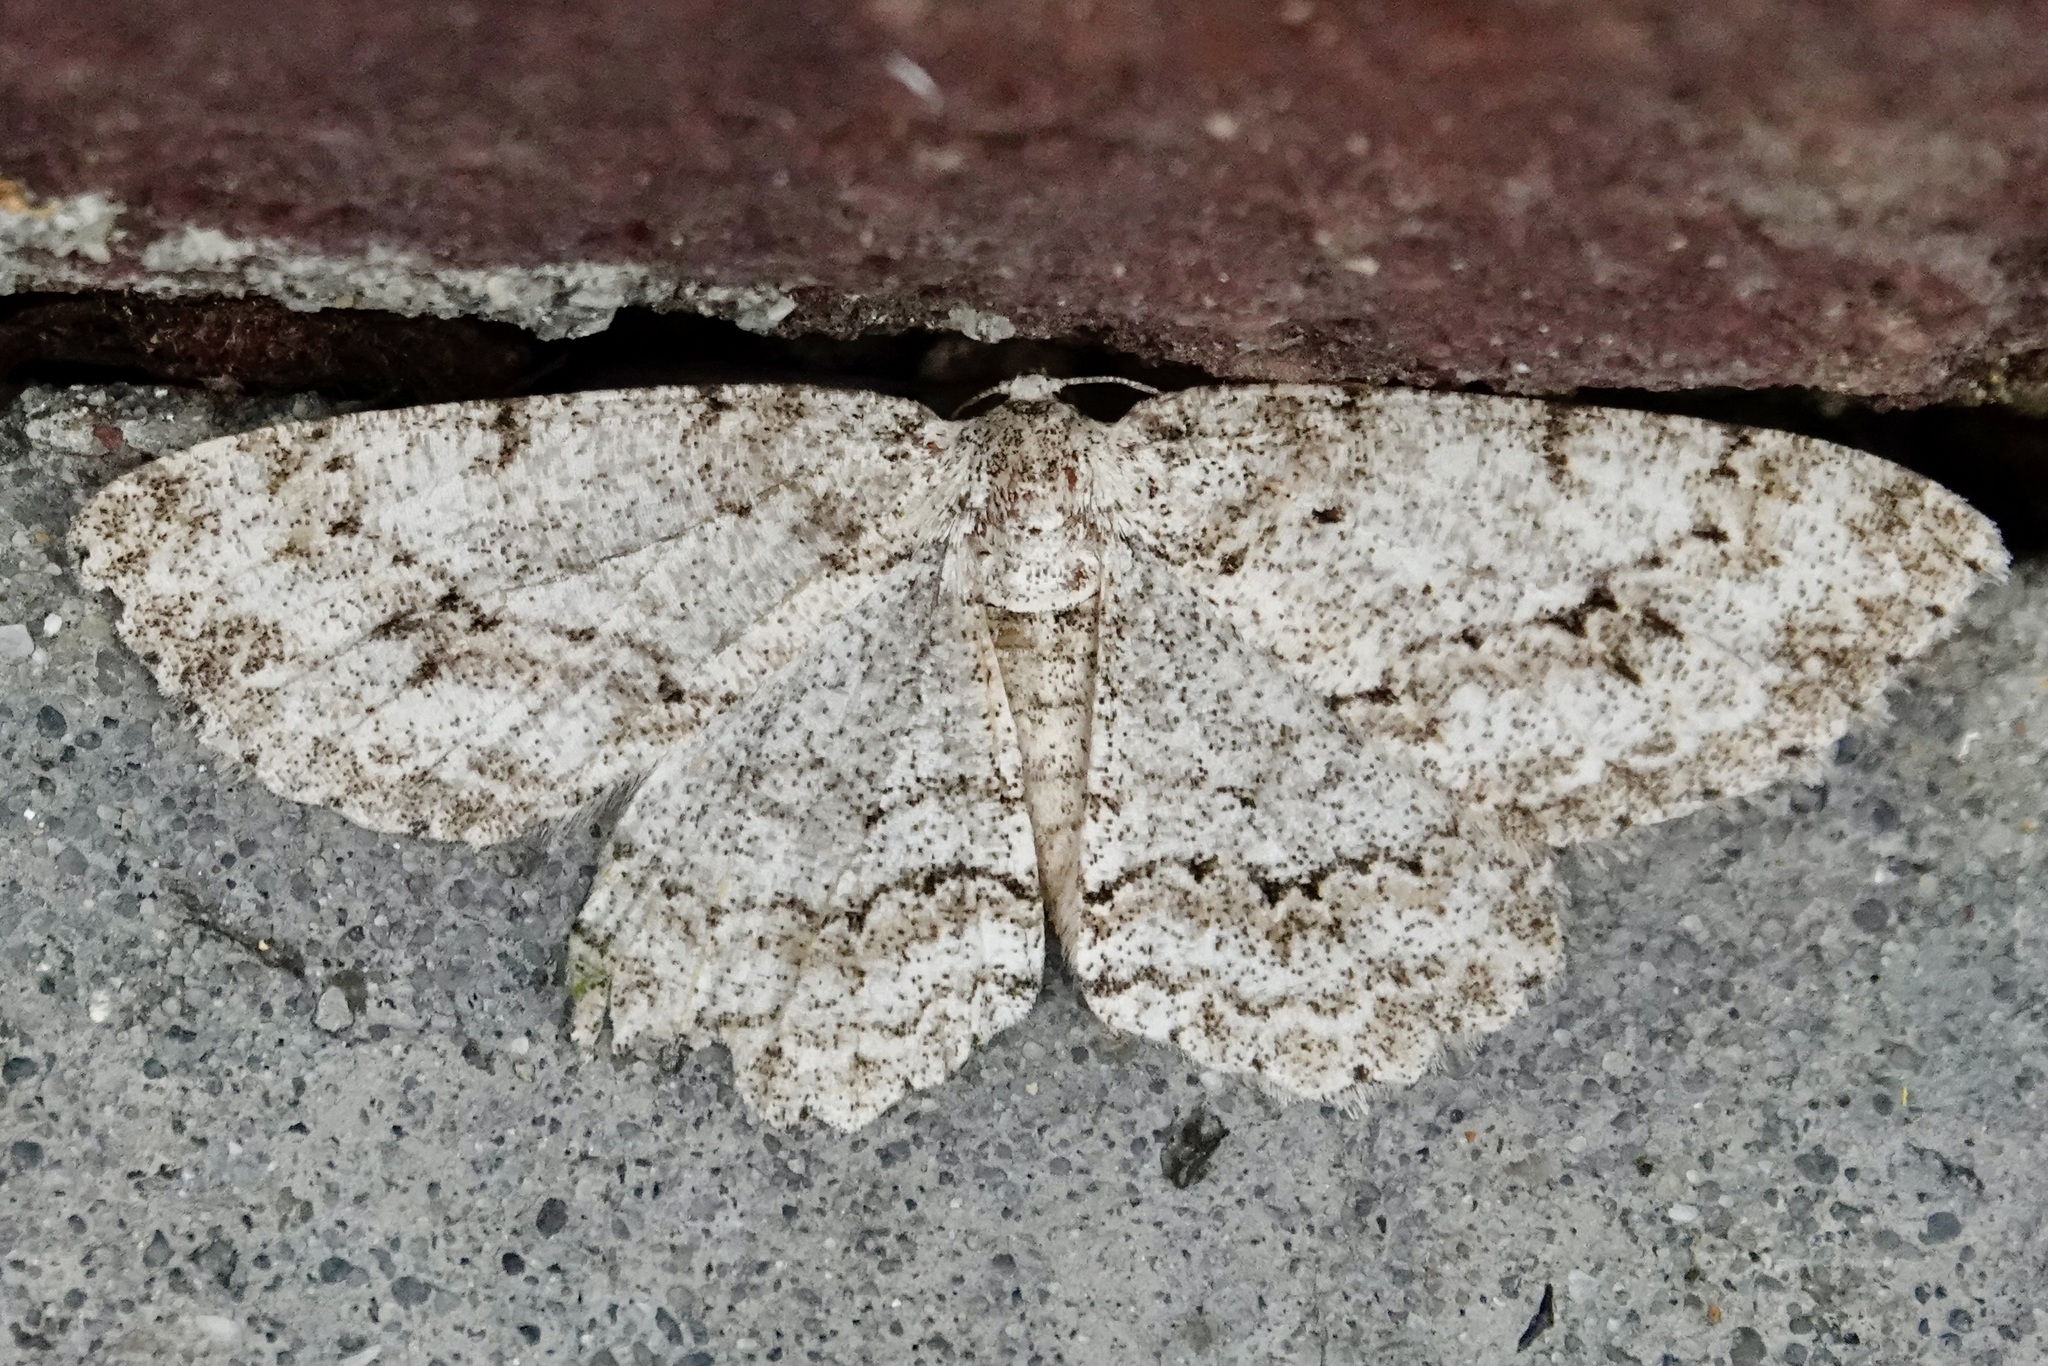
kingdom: Animalia
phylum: Arthropoda
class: Insecta
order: Lepidoptera
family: Geometridae
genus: Ectropis
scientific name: Ectropis crepuscularia
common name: Engrailed
